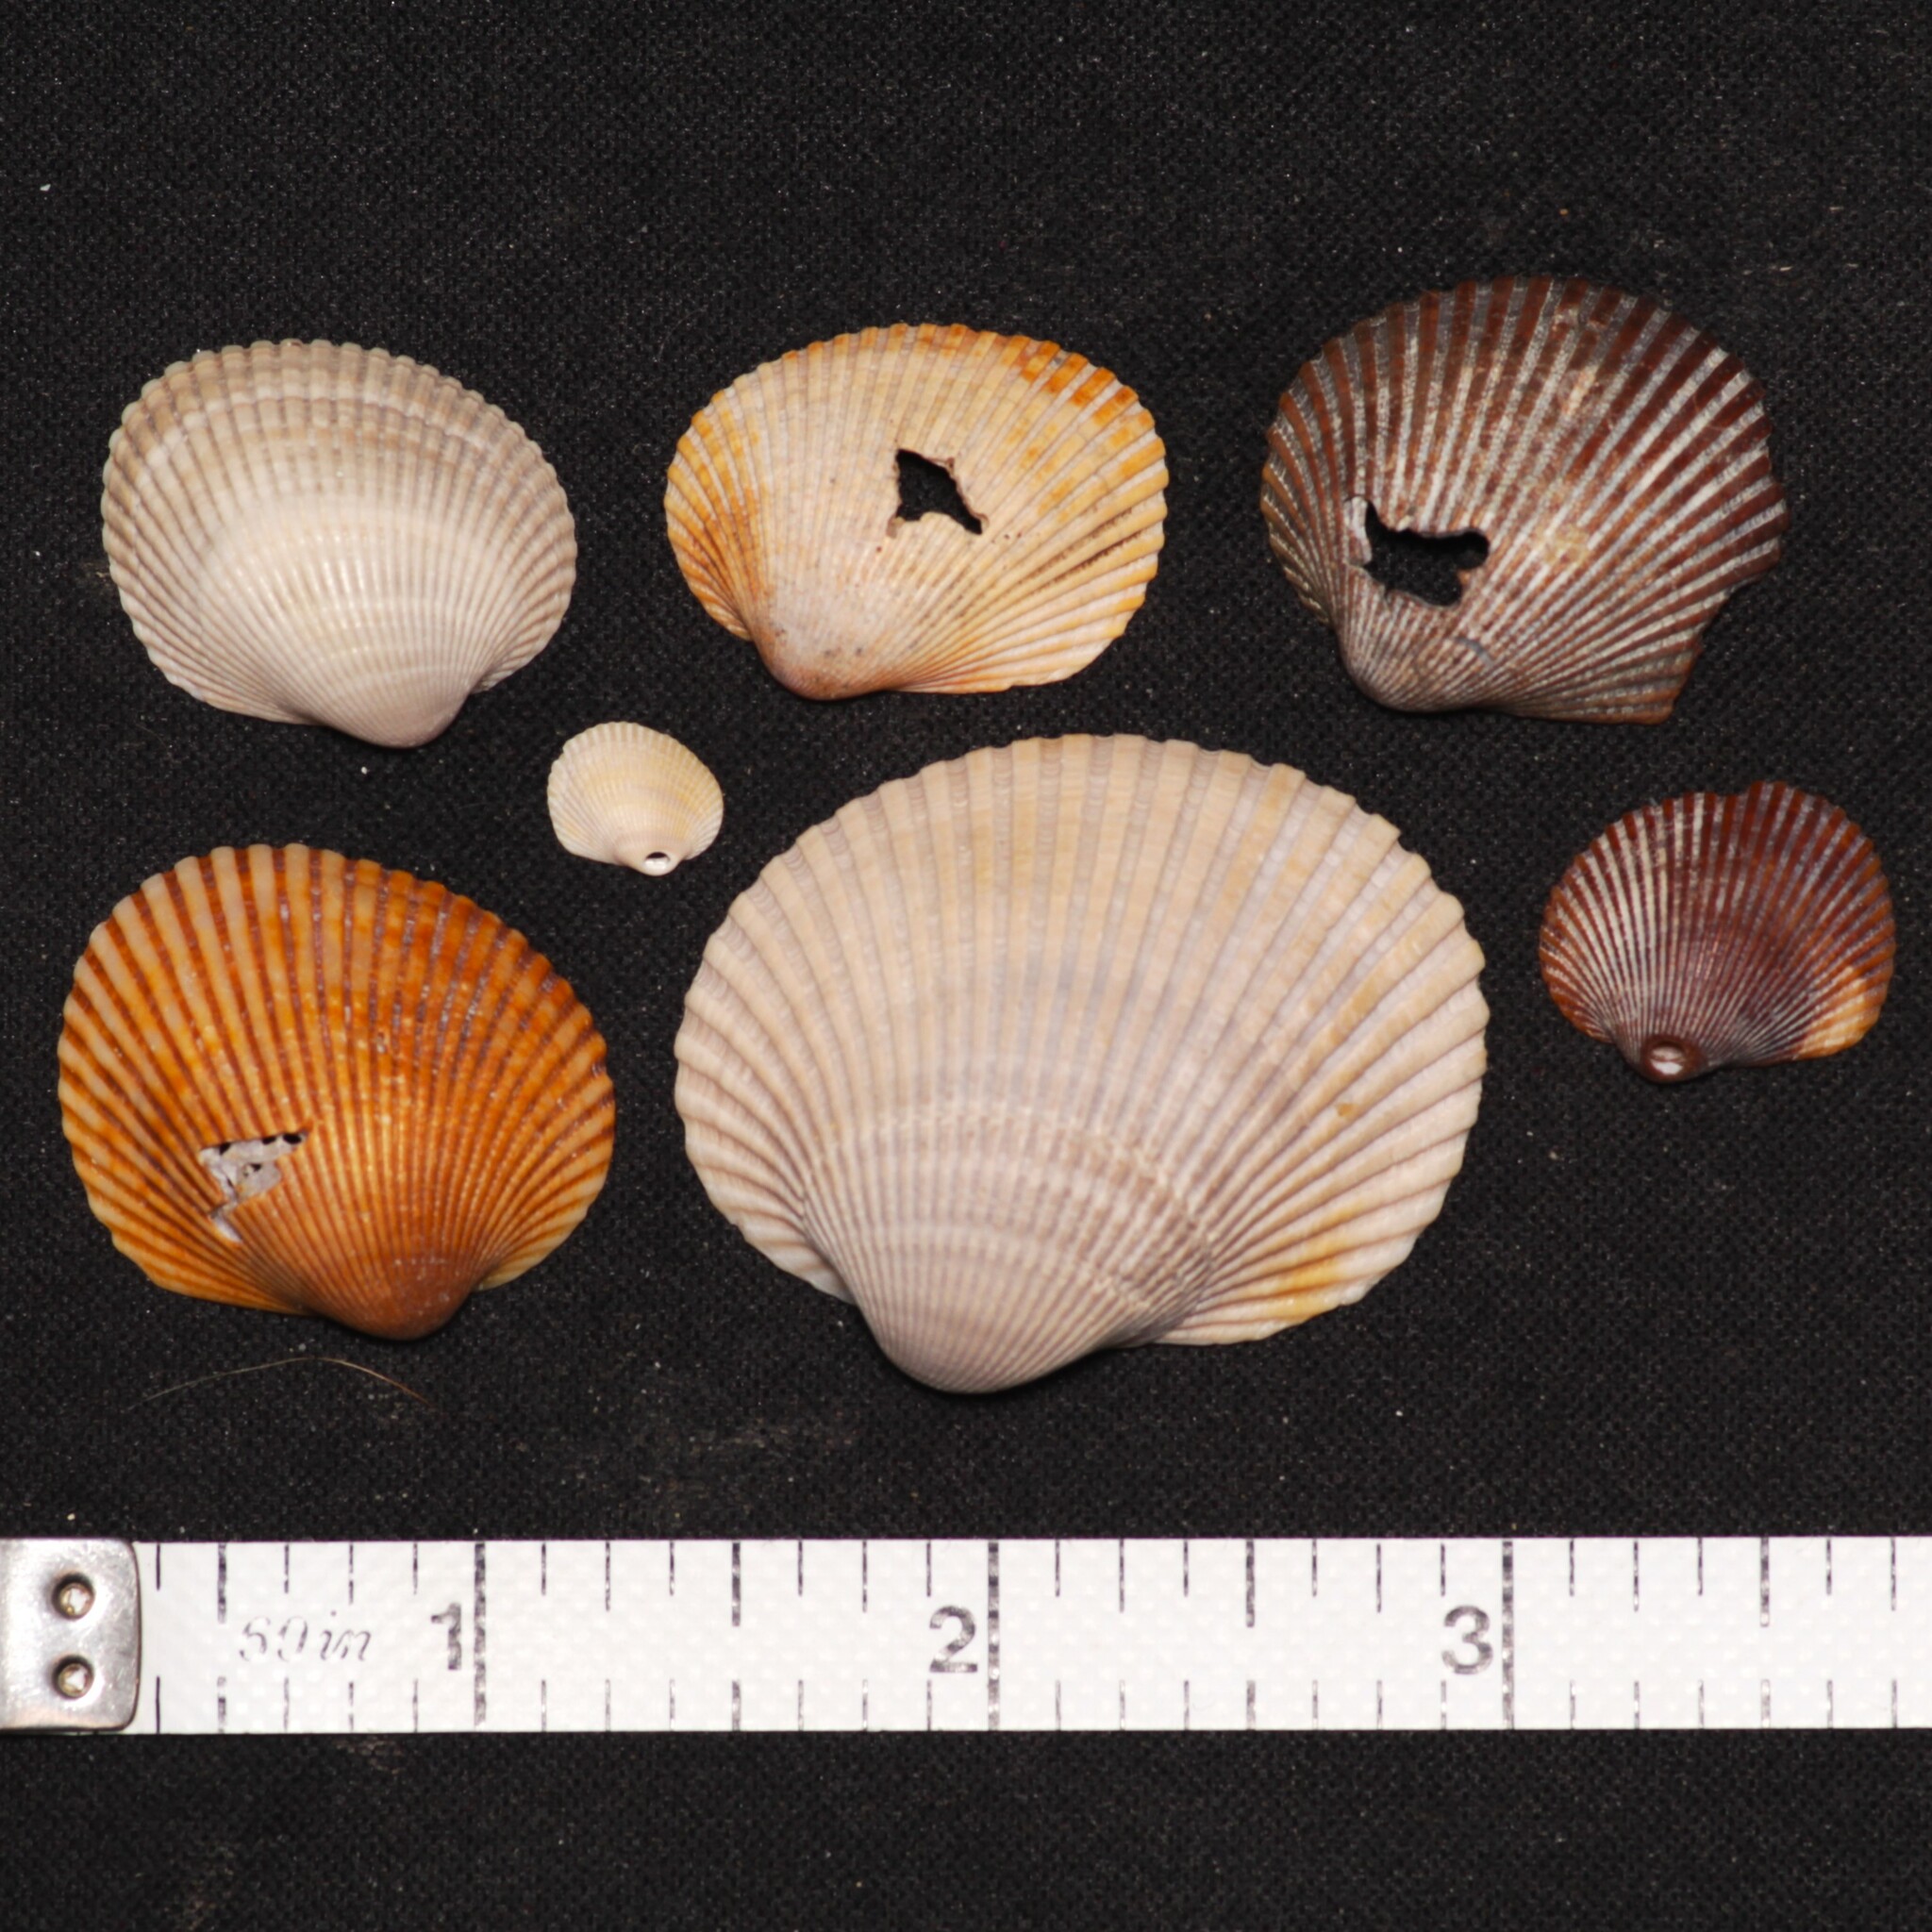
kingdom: Animalia
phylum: Mollusca
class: Bivalvia
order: Arcida
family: Arcidae
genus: Lunarca
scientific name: Lunarca ovalis
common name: Blood ark
